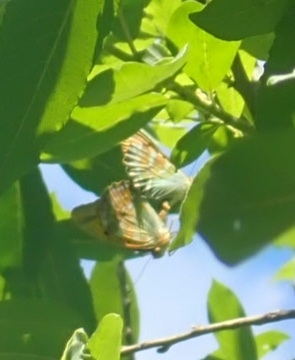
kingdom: Animalia
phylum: Arthropoda
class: Insecta
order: Lepidoptera
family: Nymphalidae
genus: Argynnis
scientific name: Argynnis paphia
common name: Silver-washed fritillary
